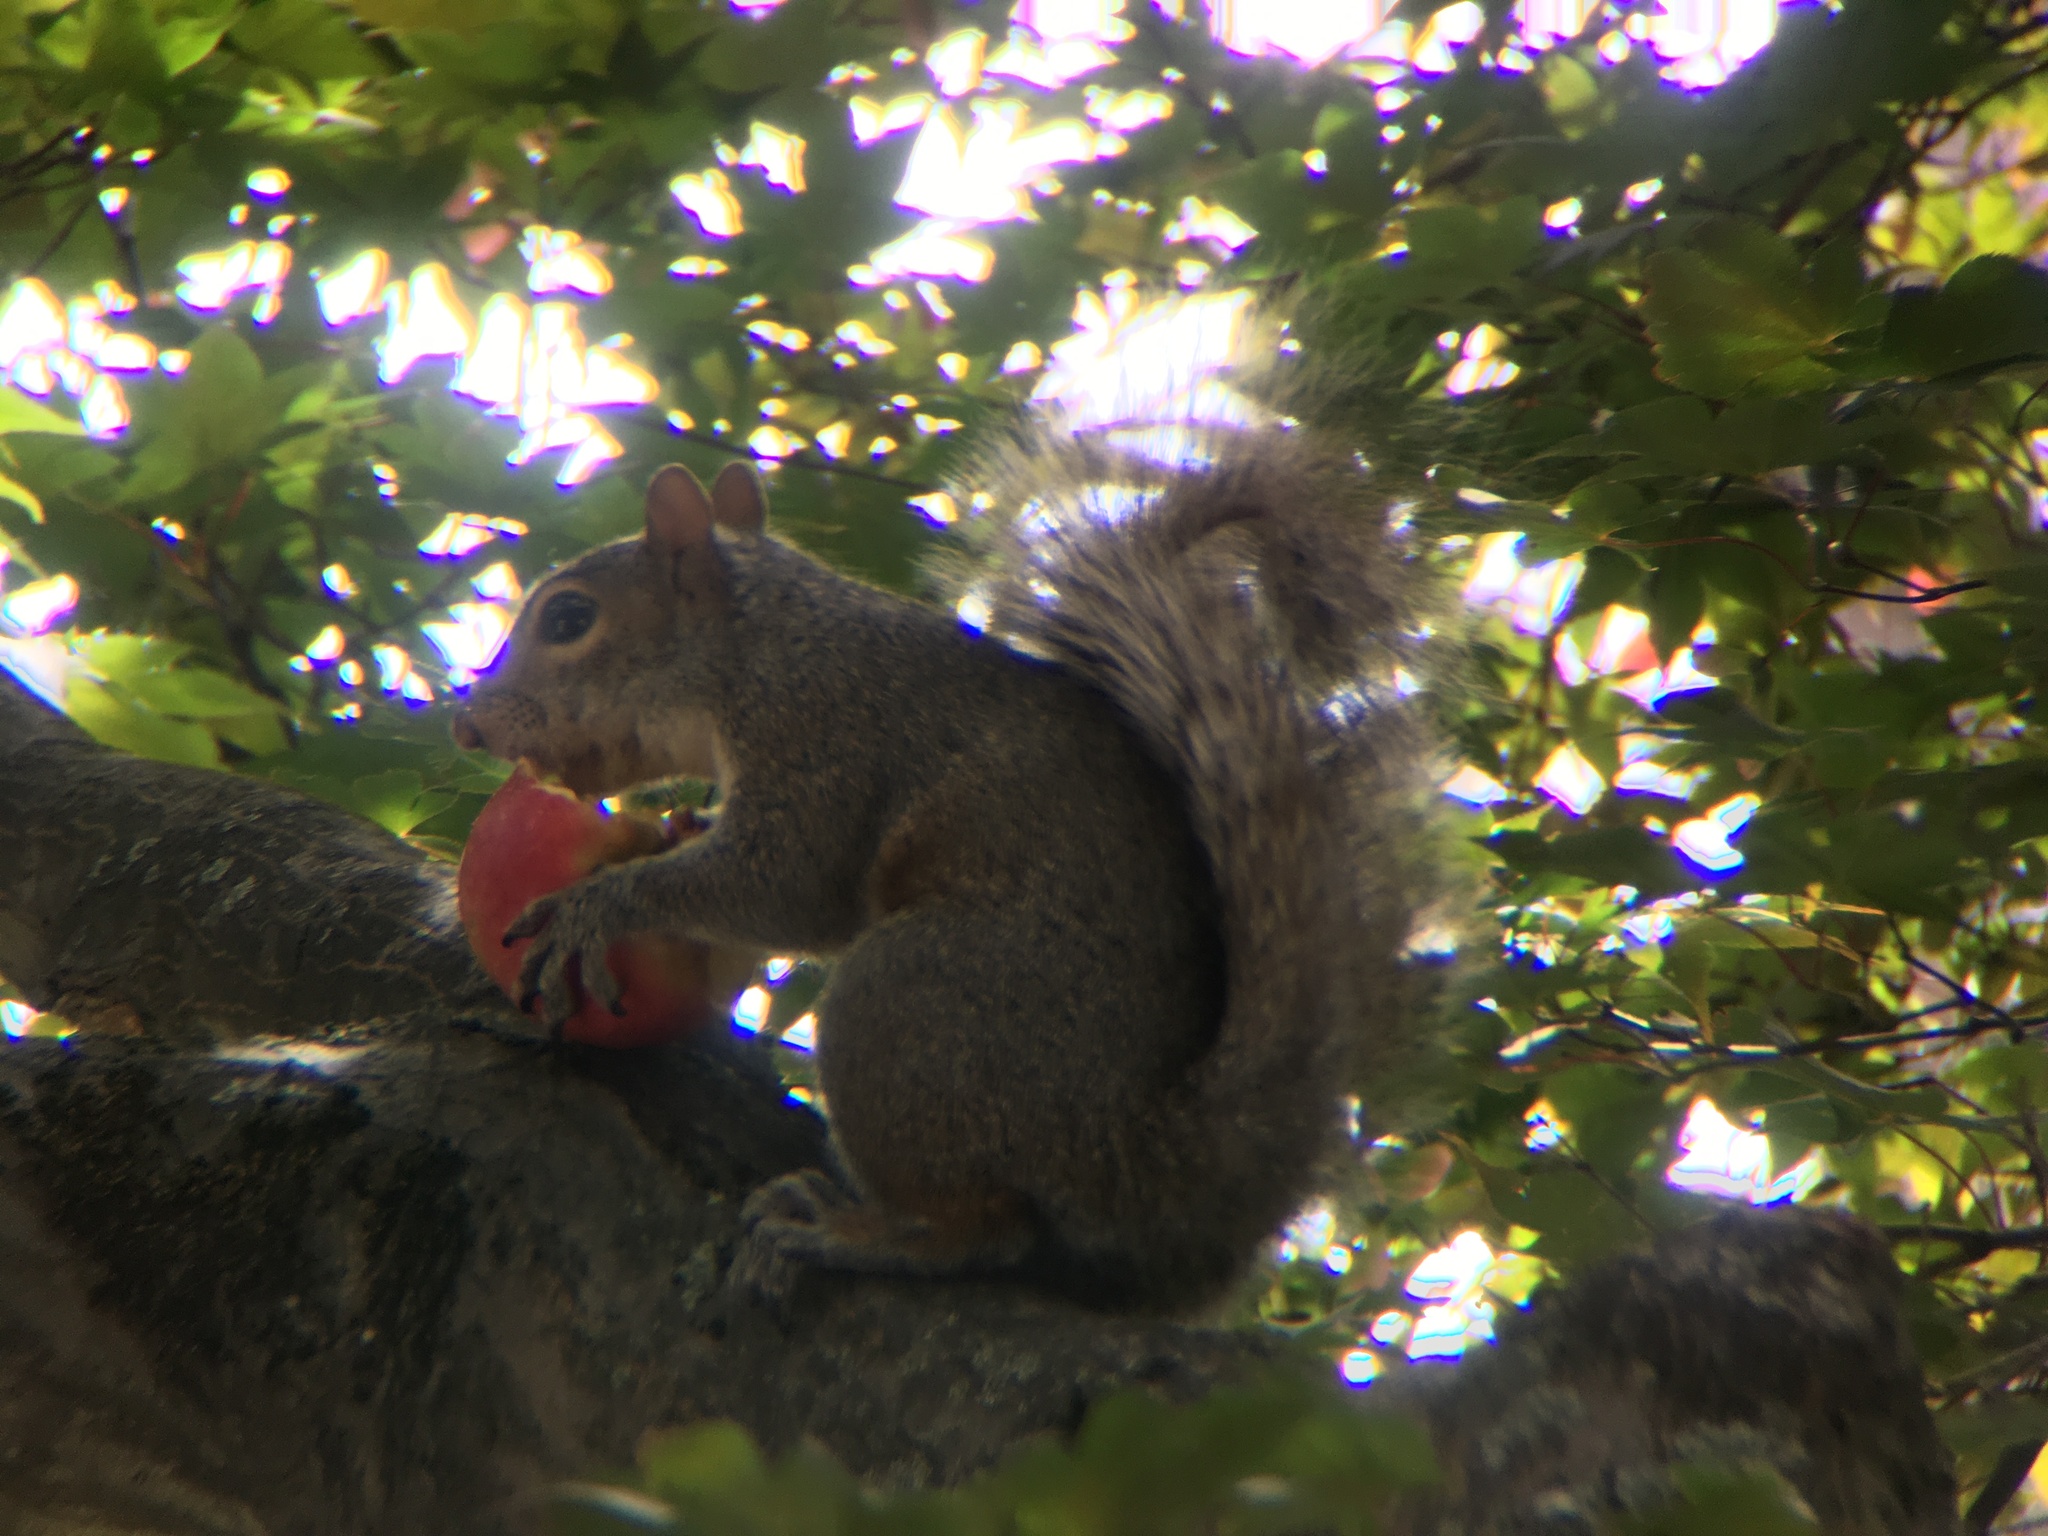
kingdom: Animalia
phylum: Chordata
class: Mammalia
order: Rodentia
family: Sciuridae
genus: Sciurus
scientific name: Sciurus carolinensis
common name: Eastern gray squirrel
